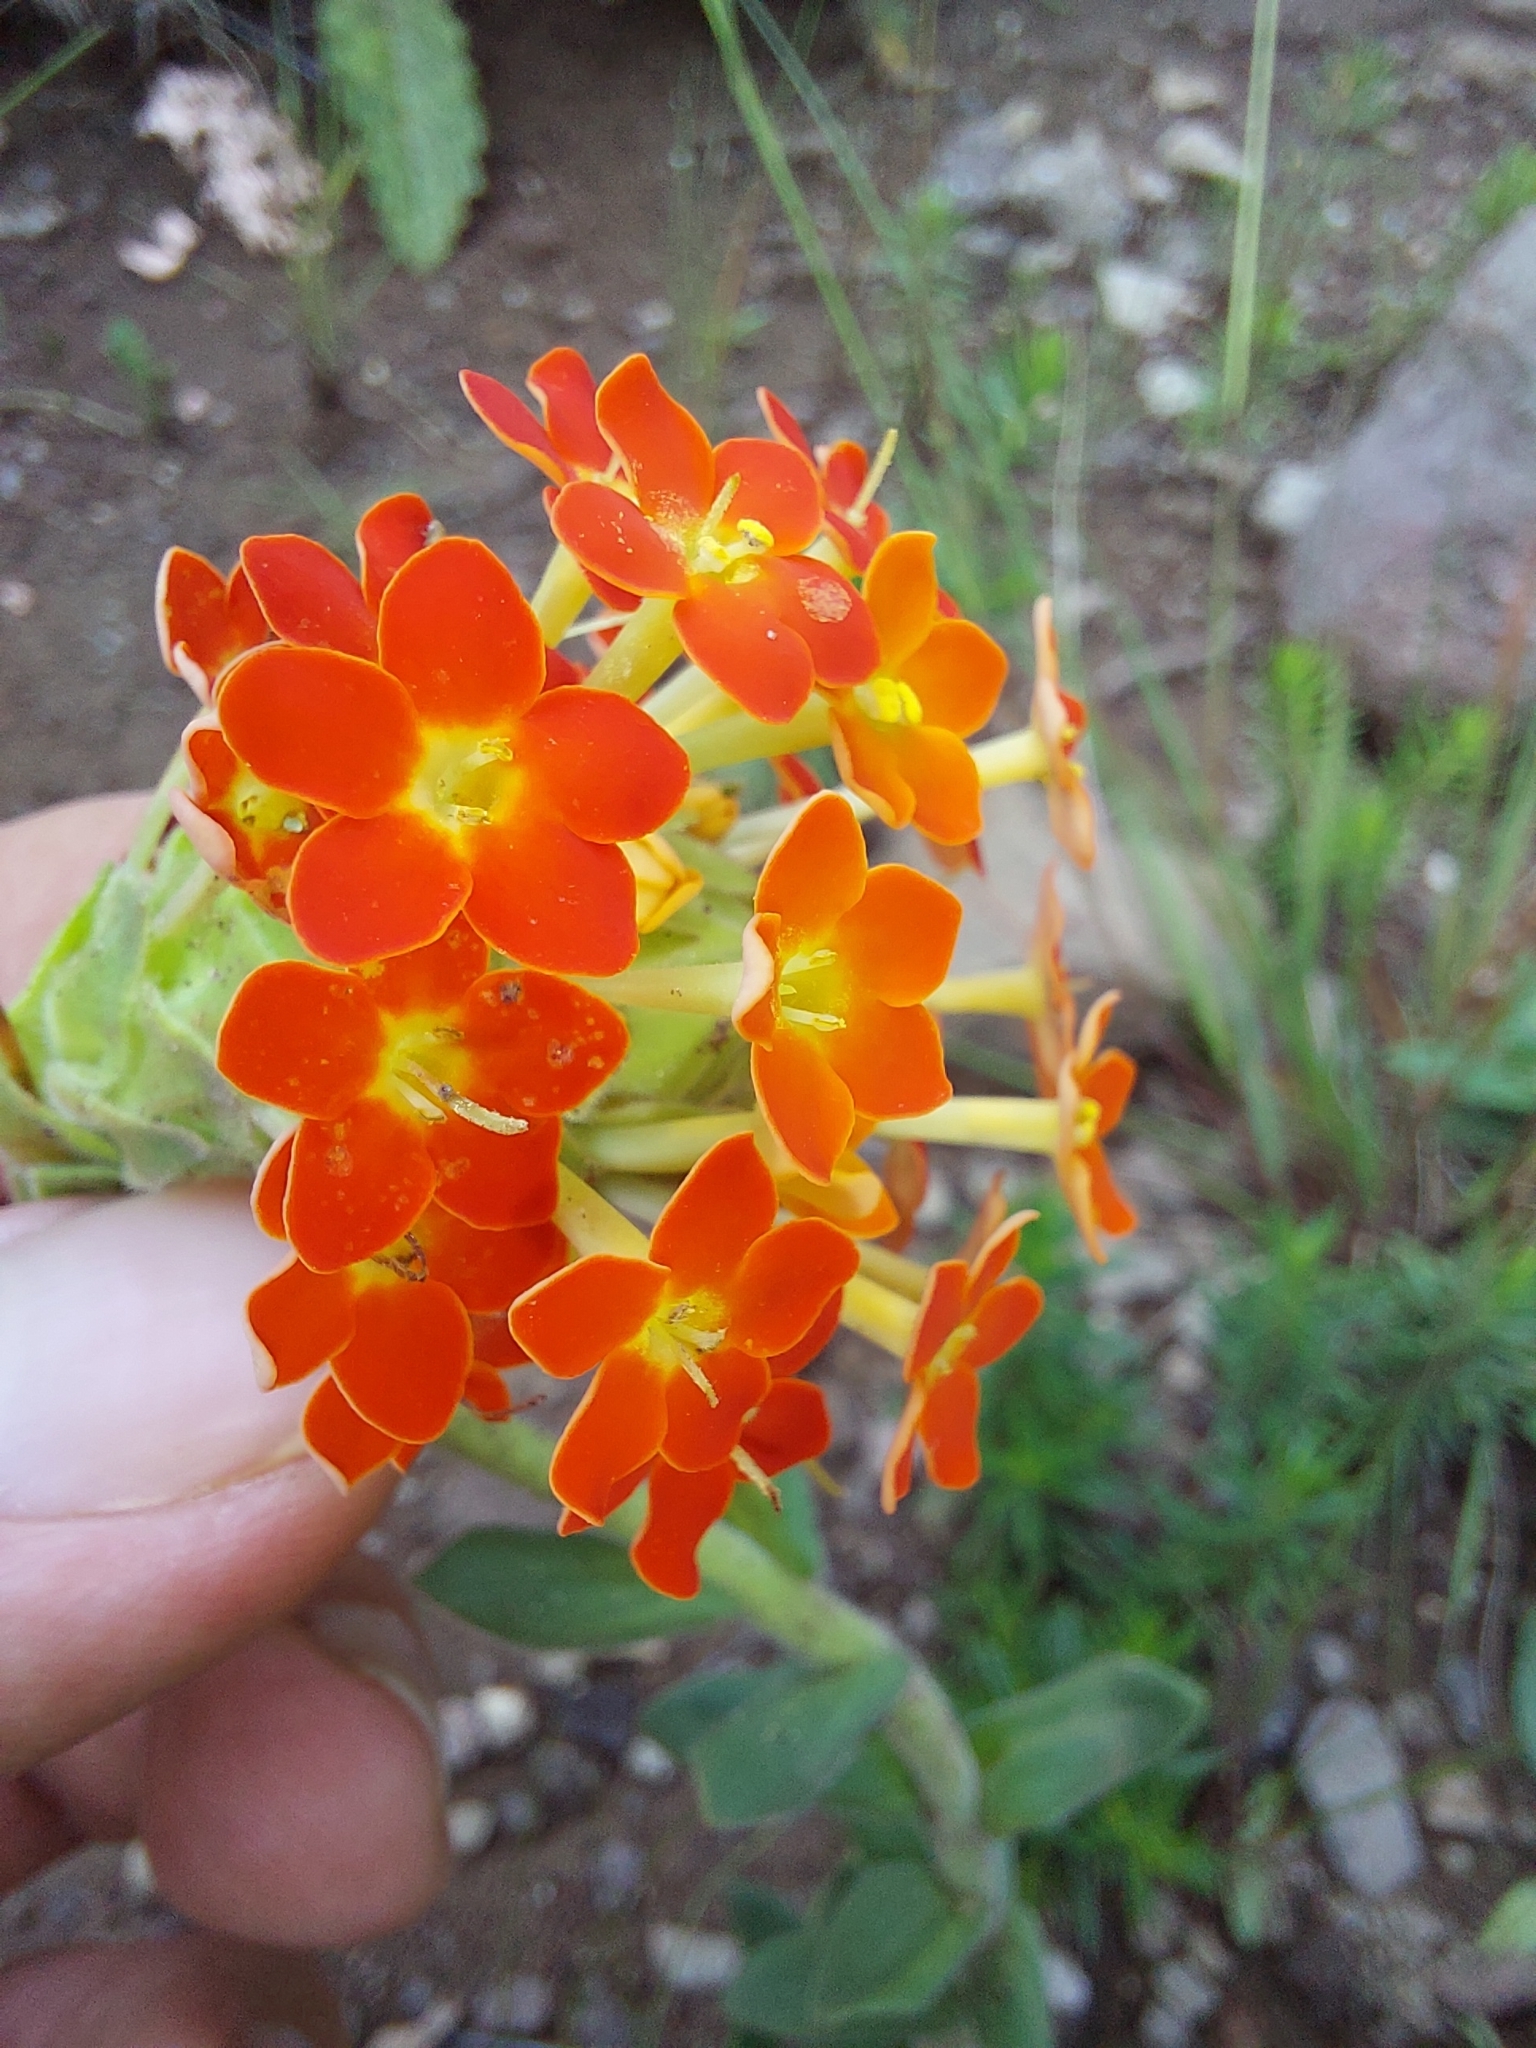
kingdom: Plantae
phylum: Tracheophyta
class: Magnoliopsida
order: Lamiales
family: Scrophulariaceae
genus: Glumicalyx
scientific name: Glumicalyx goseloides
